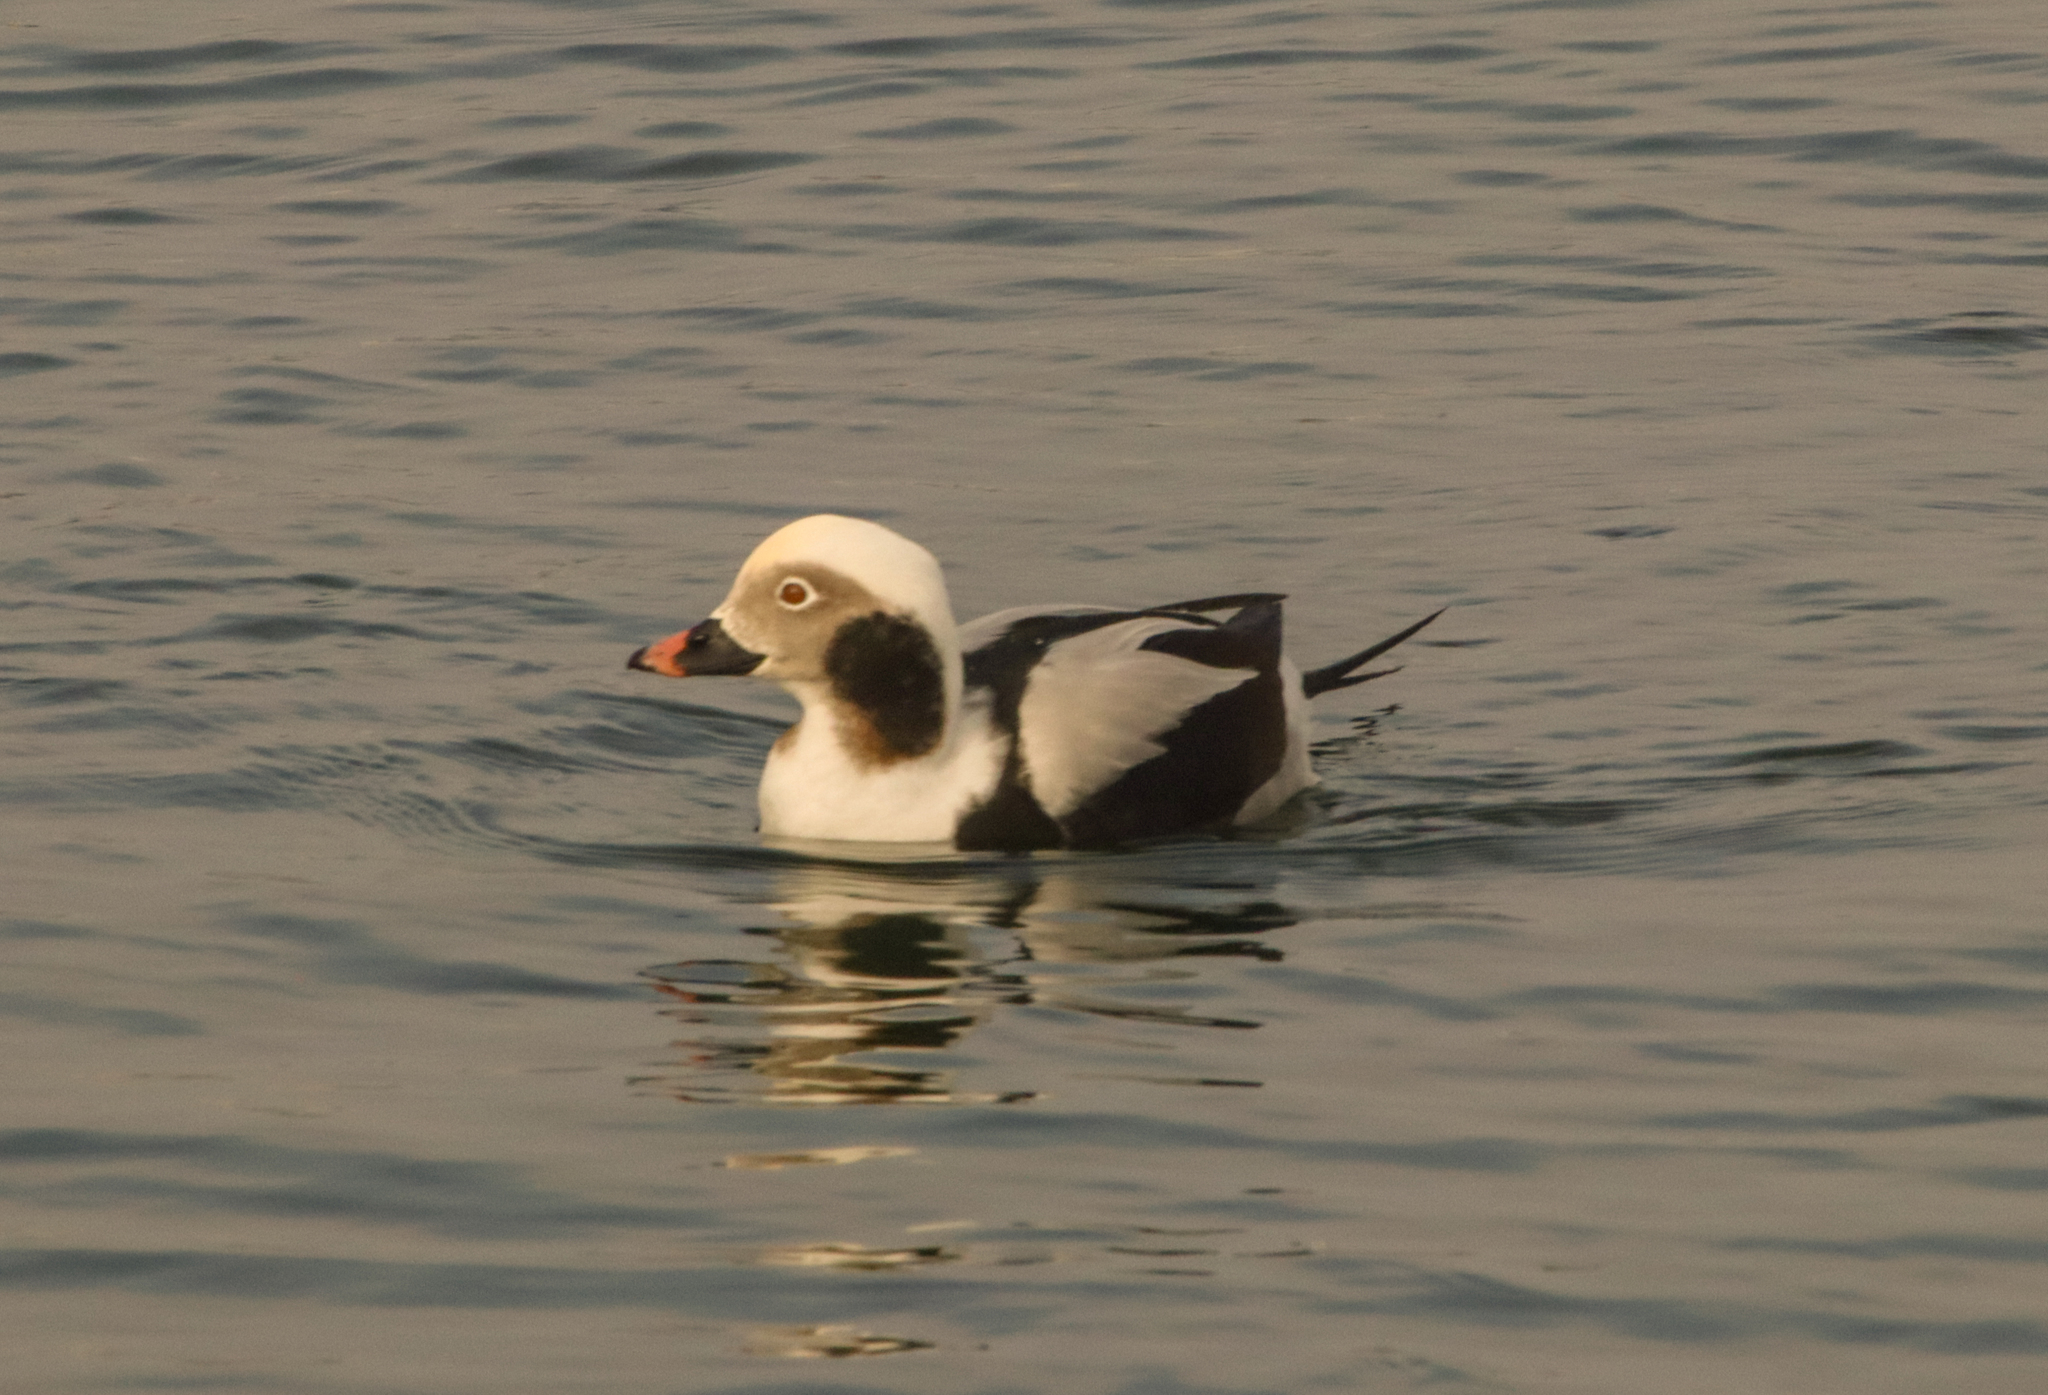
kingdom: Animalia
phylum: Chordata
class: Aves
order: Anseriformes
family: Anatidae
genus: Clangula
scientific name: Clangula hyemalis
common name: Long-tailed duck
